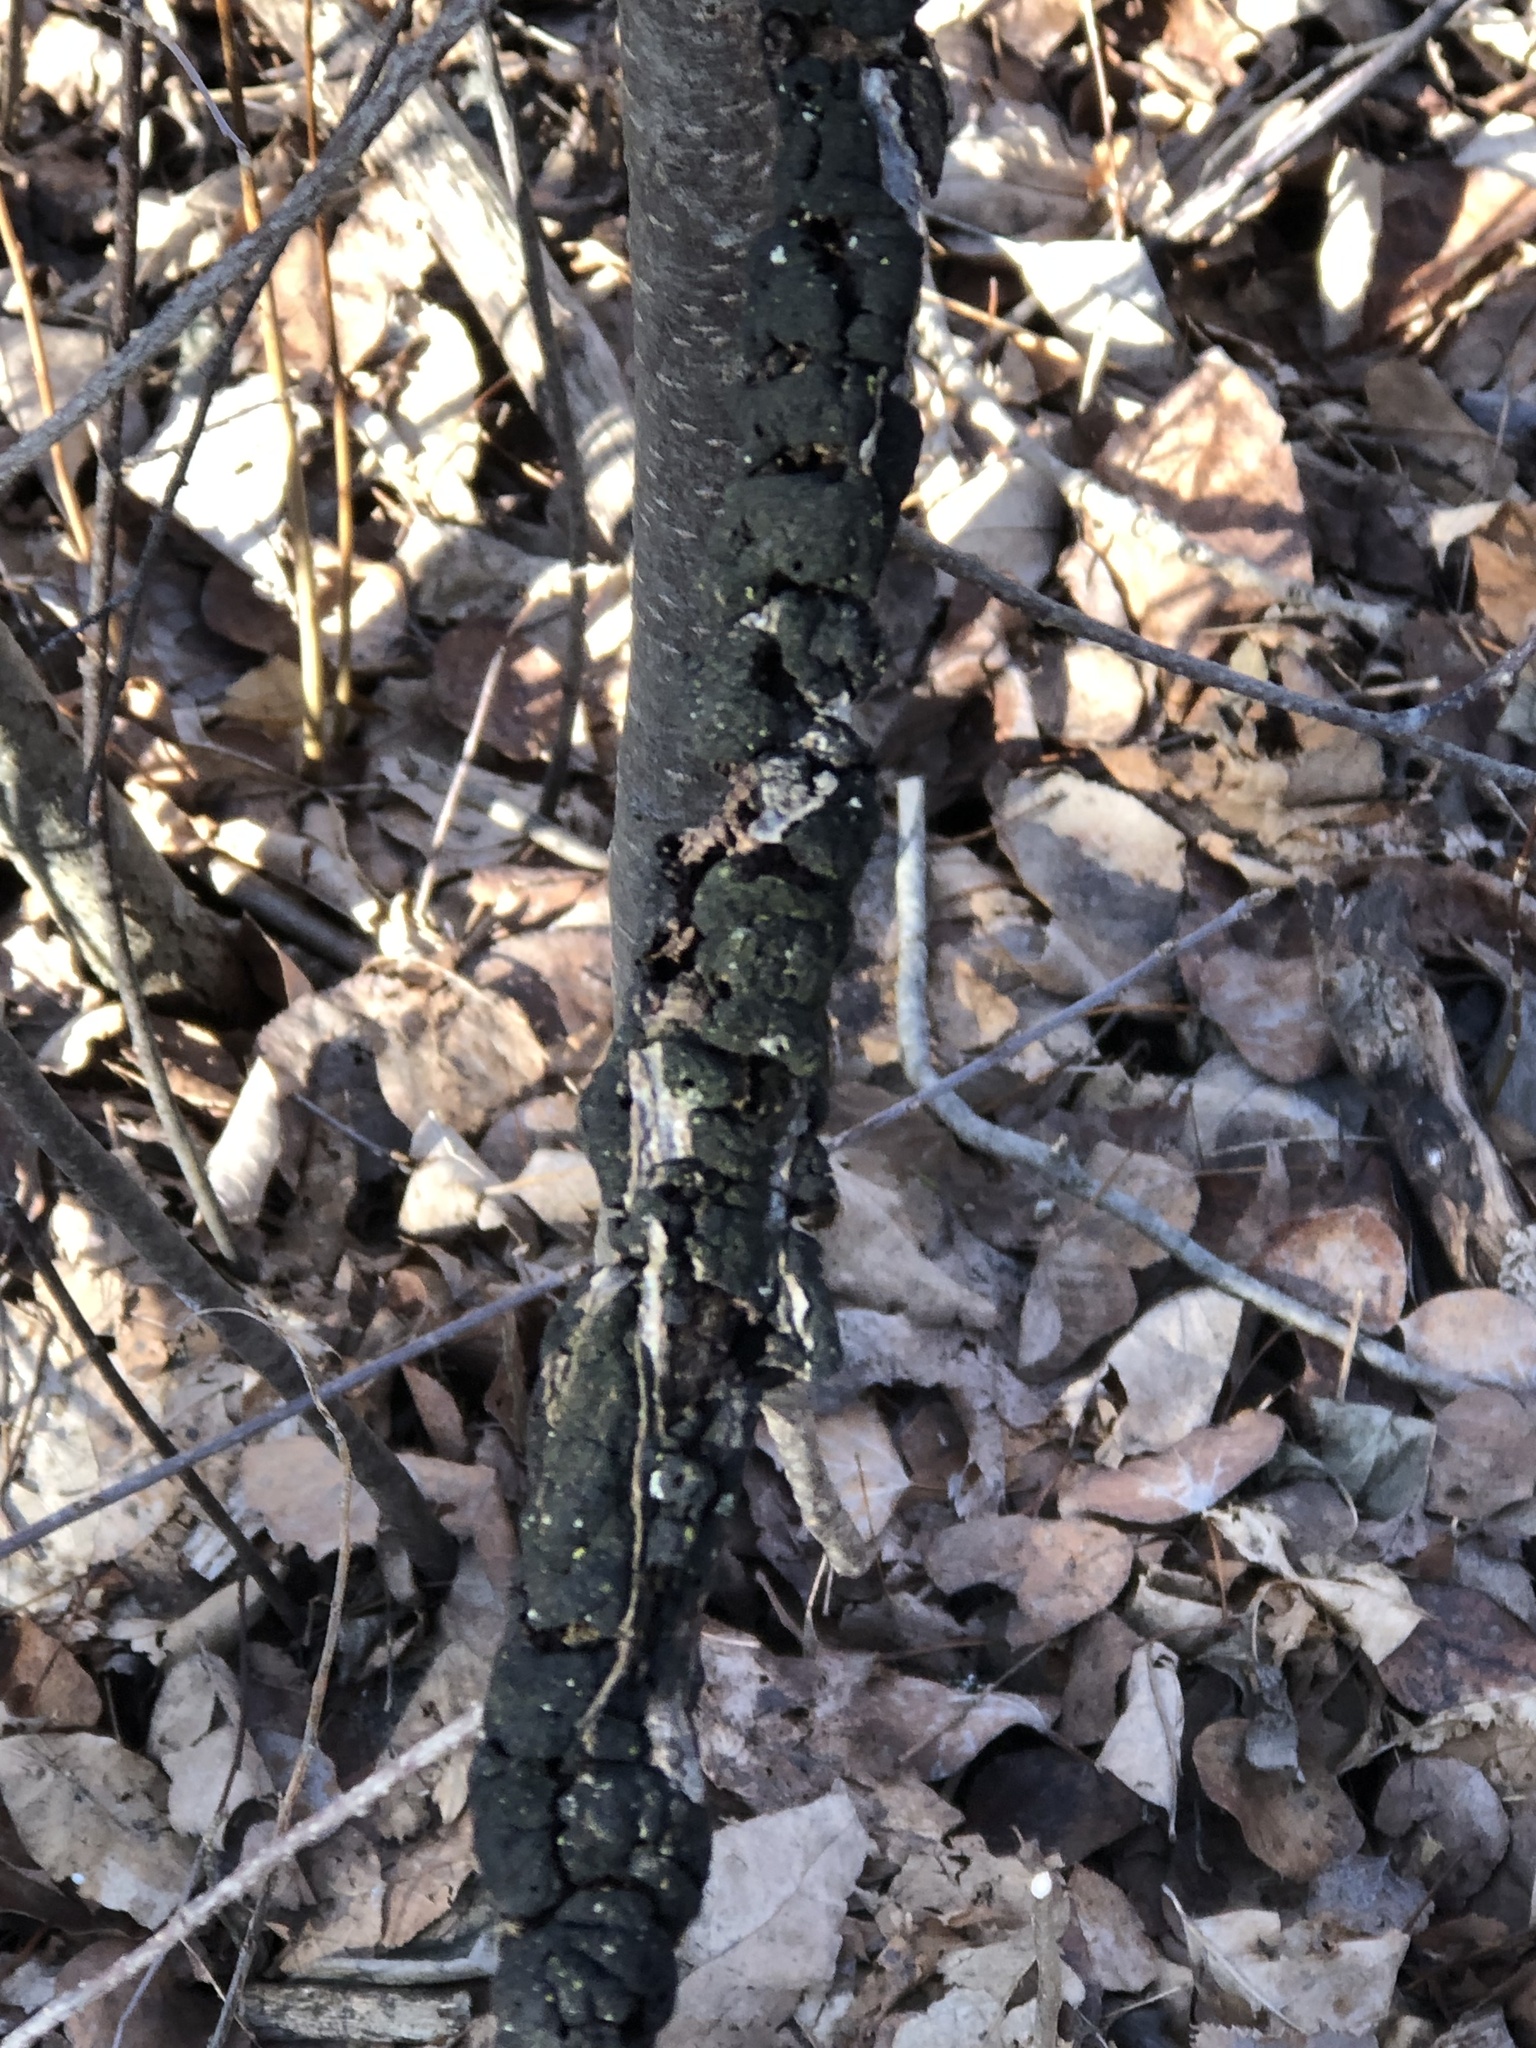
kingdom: Fungi
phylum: Ascomycota
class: Dothideomycetes
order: Venturiales
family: Venturiaceae
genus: Apiosporina
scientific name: Apiosporina morbosa
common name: Black knot
